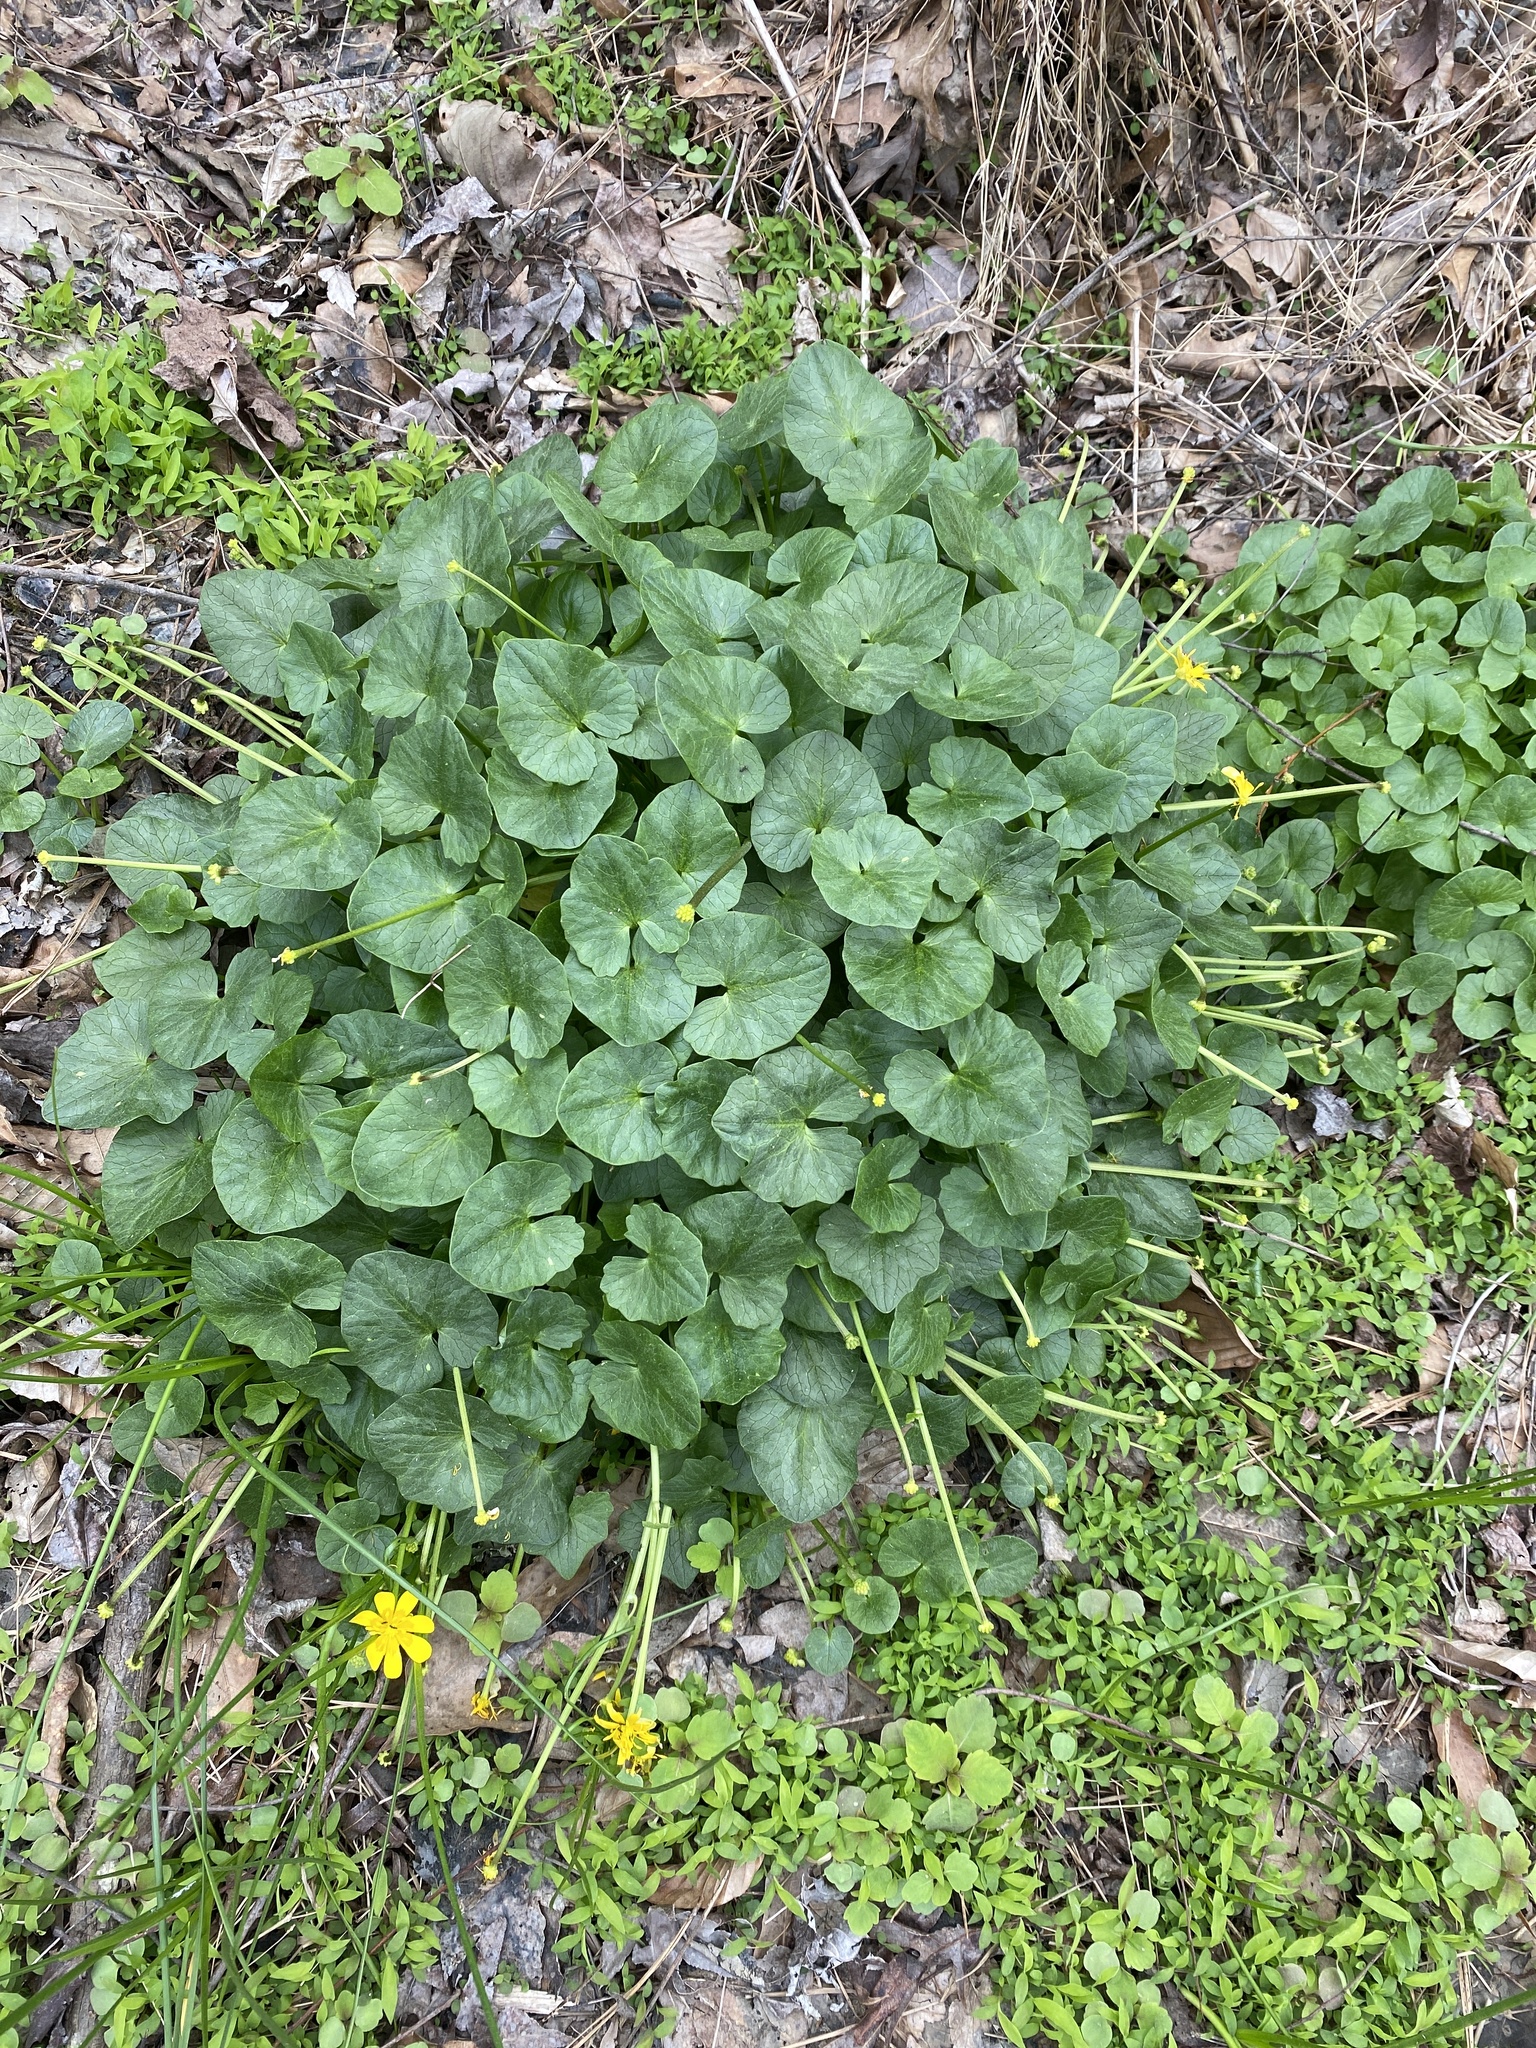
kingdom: Plantae
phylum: Tracheophyta
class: Magnoliopsida
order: Ranunculales
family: Ranunculaceae
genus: Ficaria
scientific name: Ficaria verna
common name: Lesser celandine
